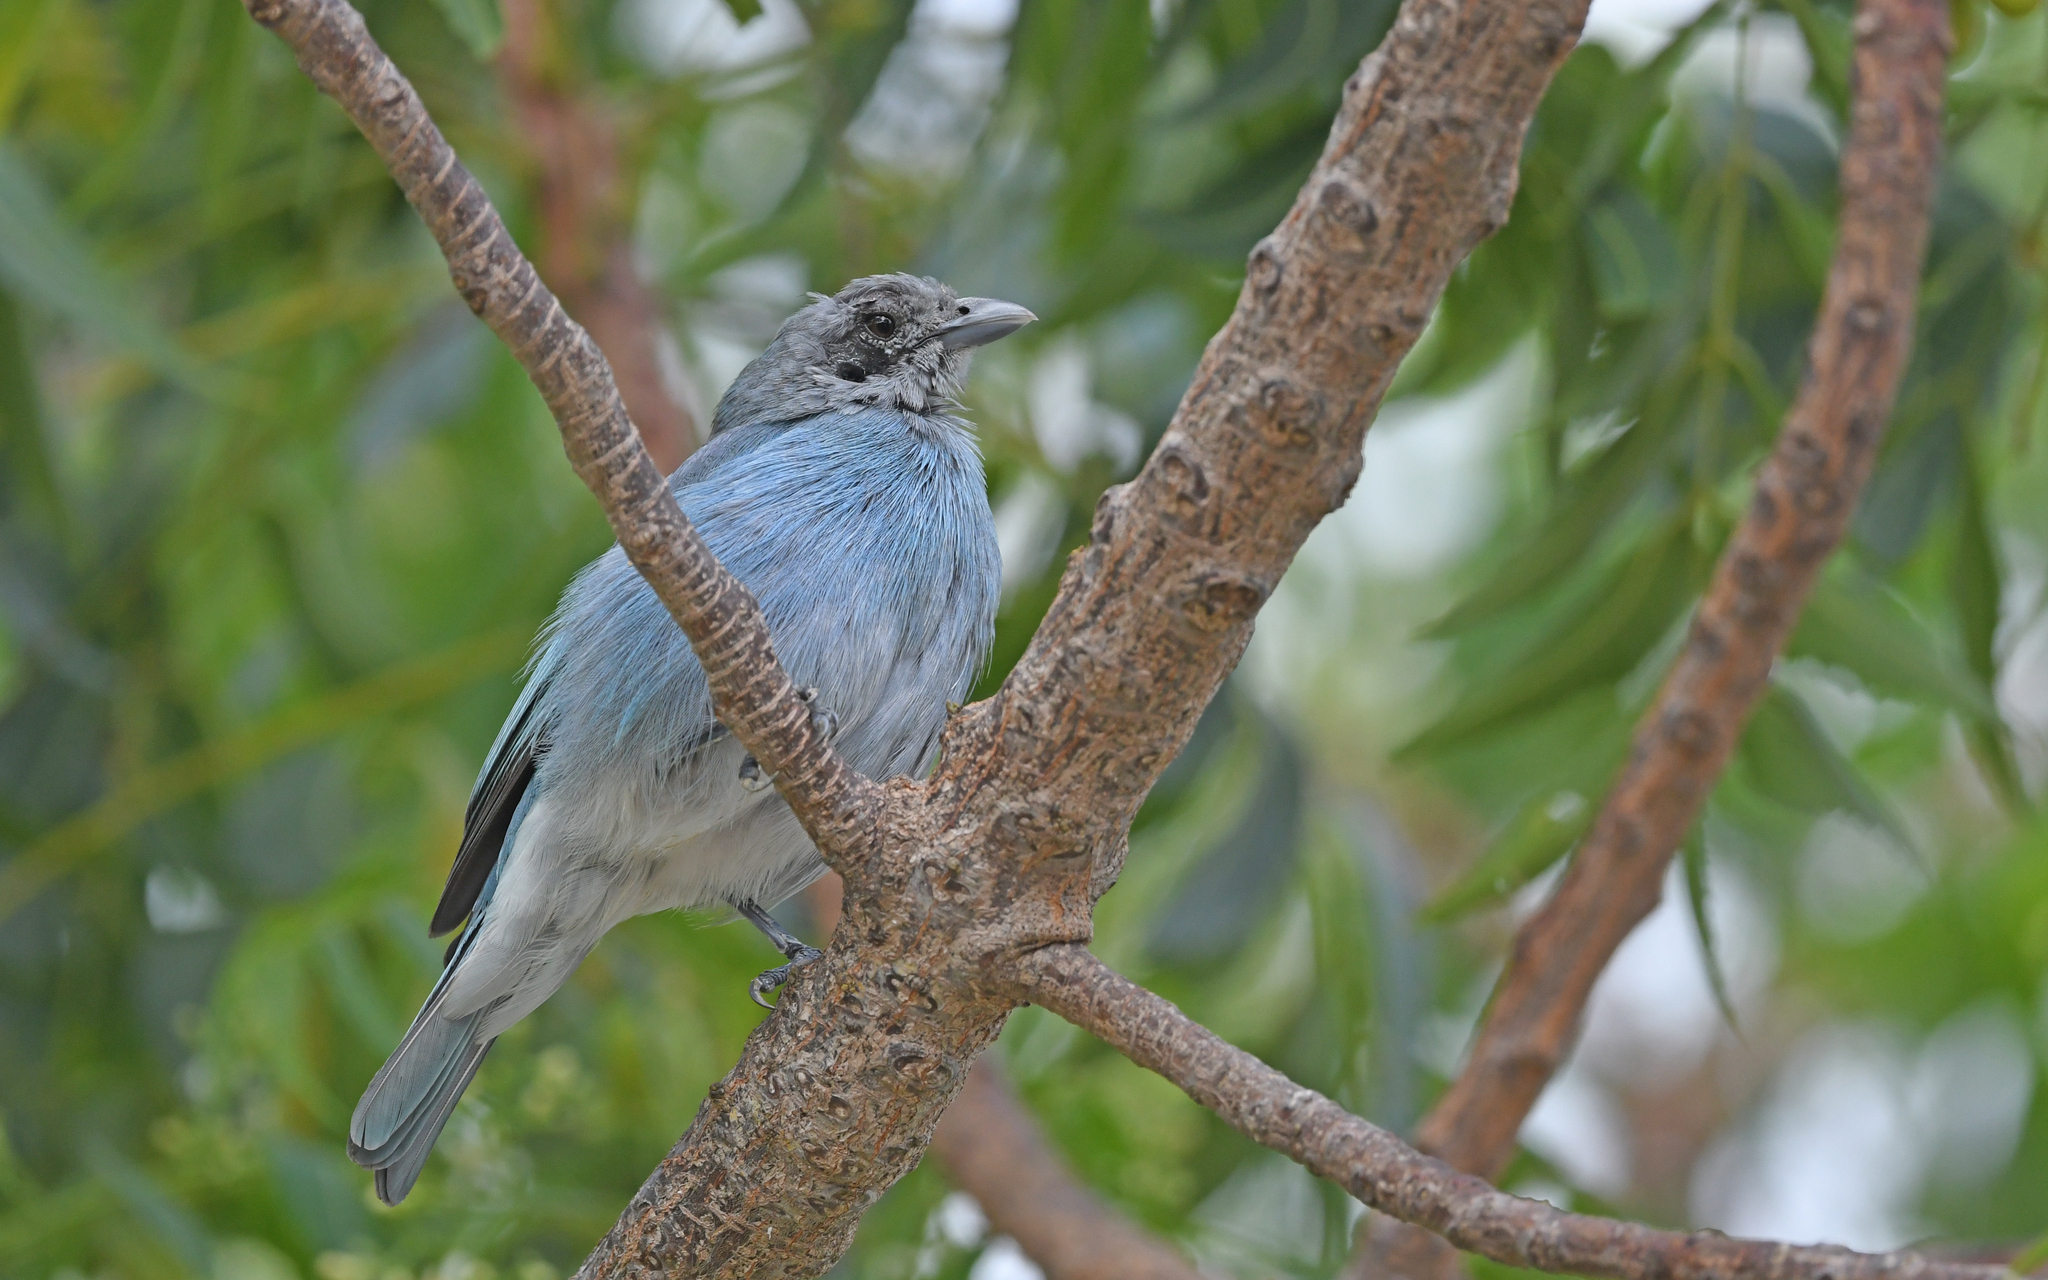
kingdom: Animalia
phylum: Chordata
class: Aves
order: Passeriformes
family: Thraupidae
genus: Thraupis
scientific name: Thraupis glaucocolpa
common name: Glaucous tanager
